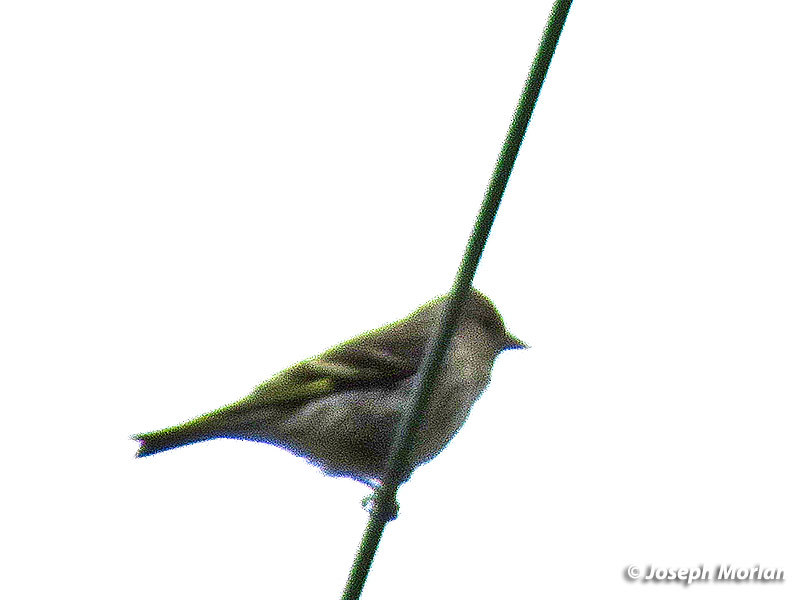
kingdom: Animalia
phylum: Chordata
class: Aves
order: Passeriformes
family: Fringillidae
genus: Spinus
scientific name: Spinus pinus
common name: Pine siskin
